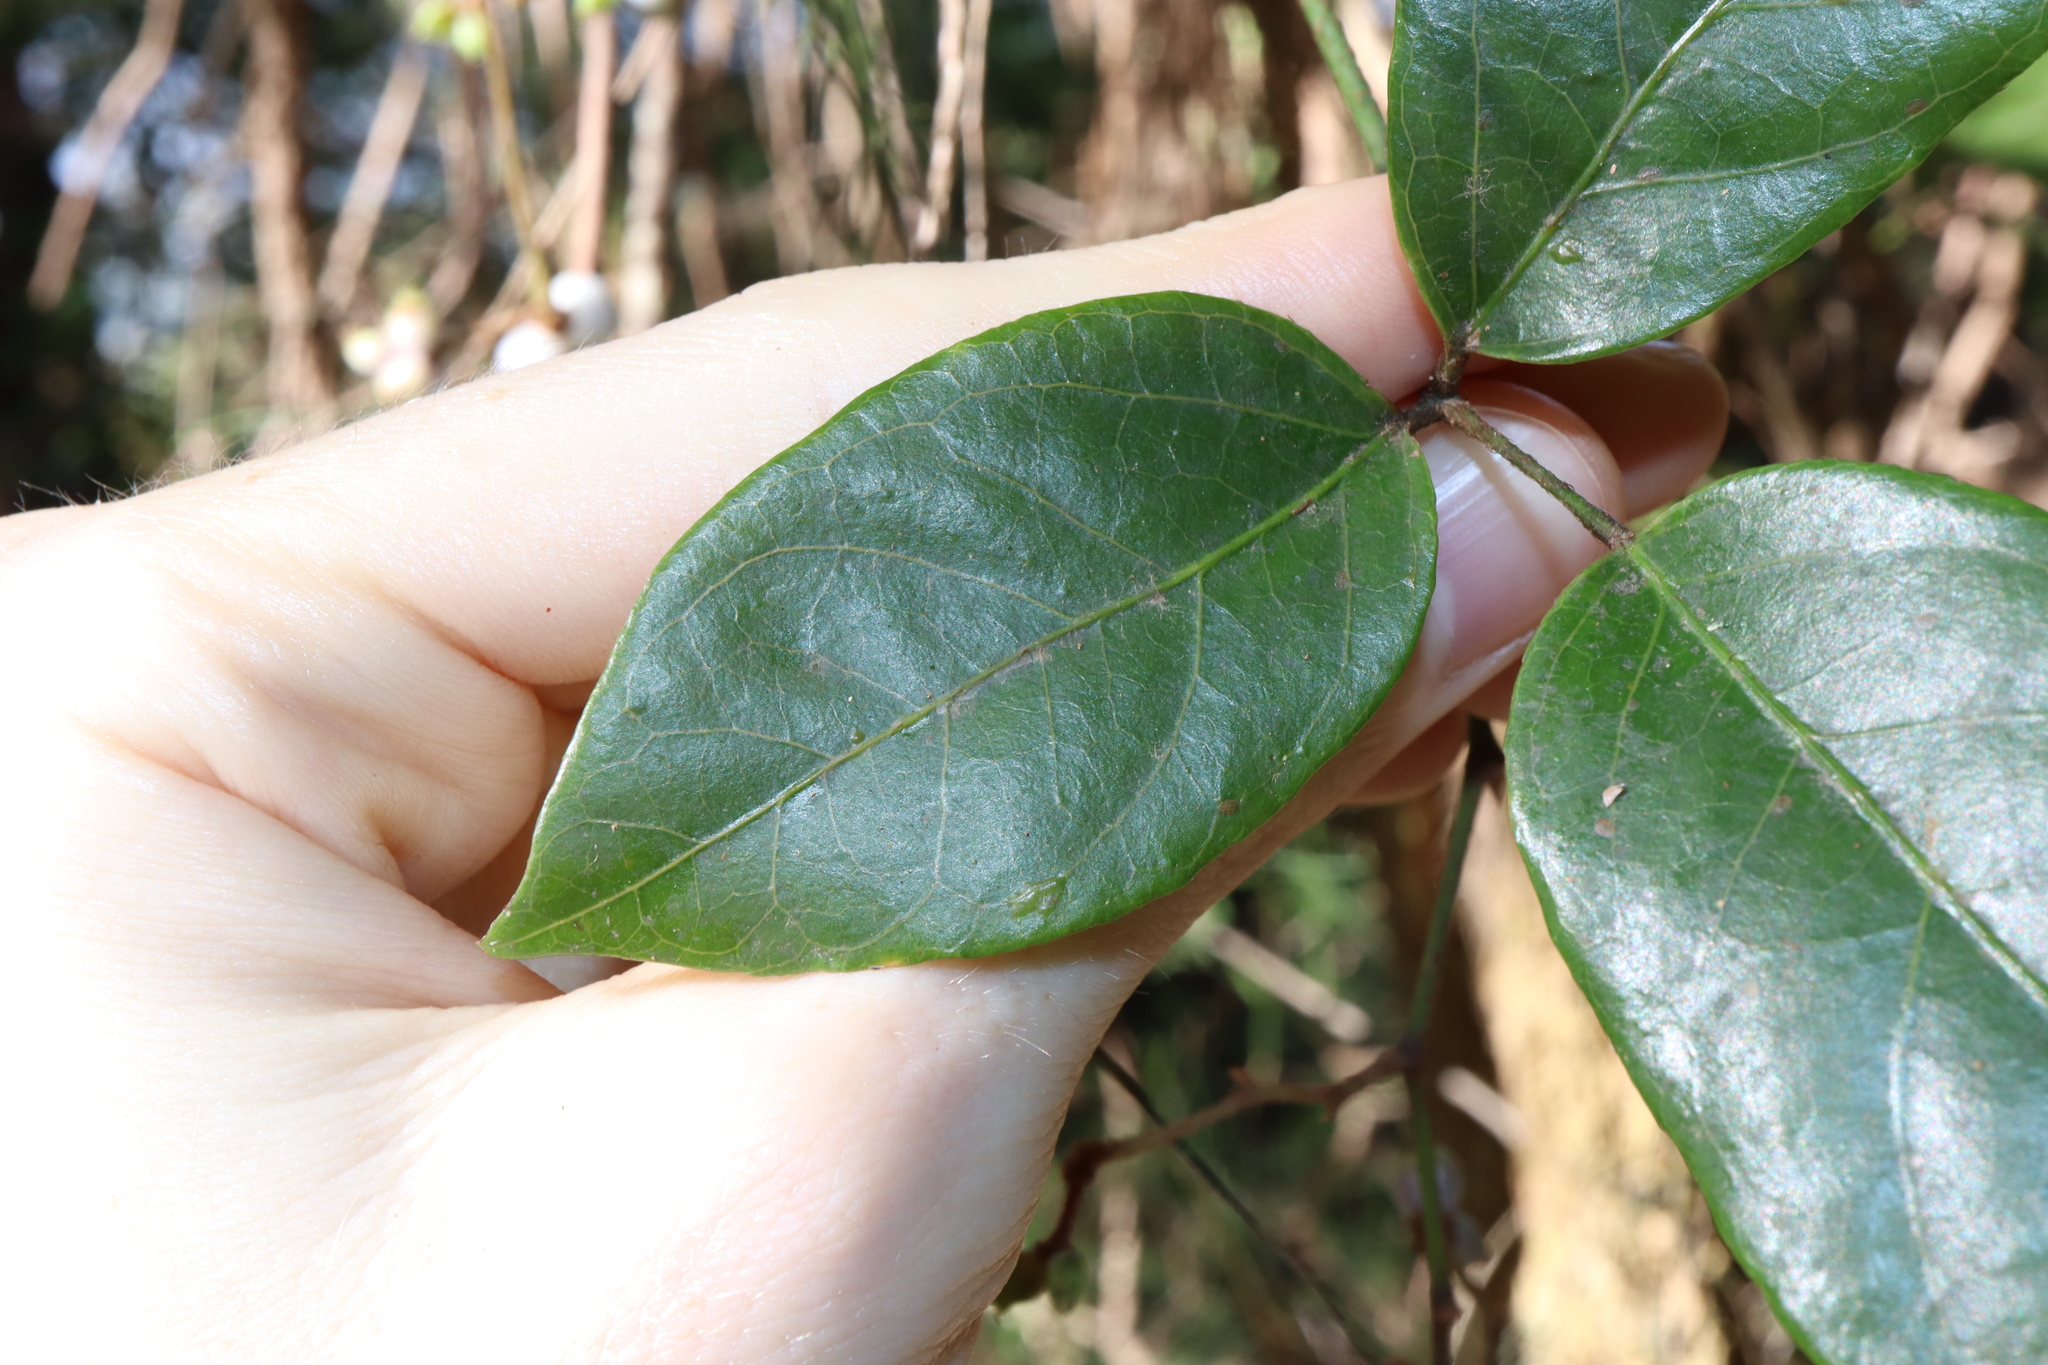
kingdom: Plantae
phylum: Tracheophyta
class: Magnoliopsida
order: Apiales
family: Araliaceae
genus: Cephalaralia
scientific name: Cephalaralia cephalobotrys
